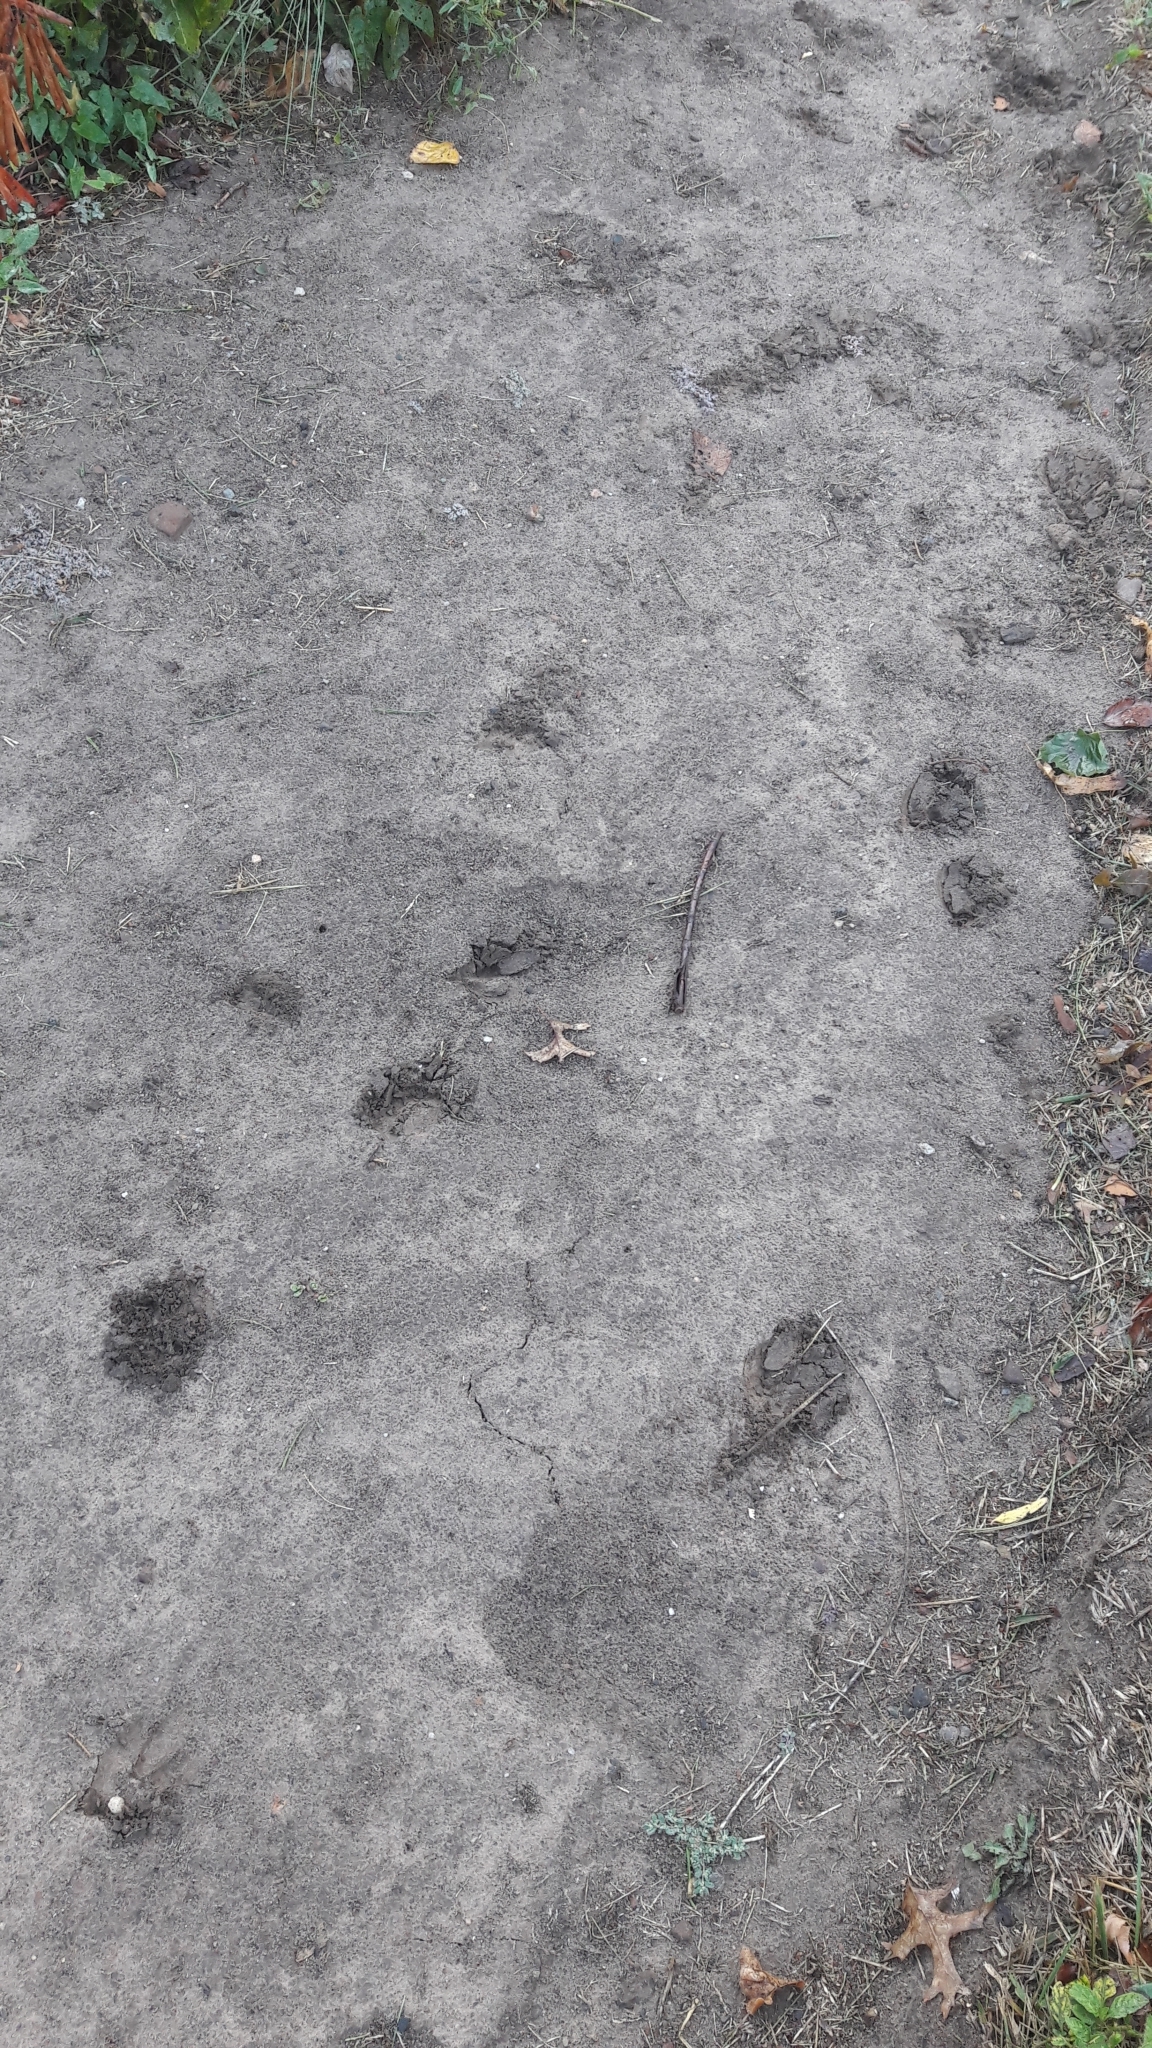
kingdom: Animalia
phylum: Chordata
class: Mammalia
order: Artiodactyla
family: Cervidae
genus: Odocoileus
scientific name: Odocoileus virginianus
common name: White-tailed deer
